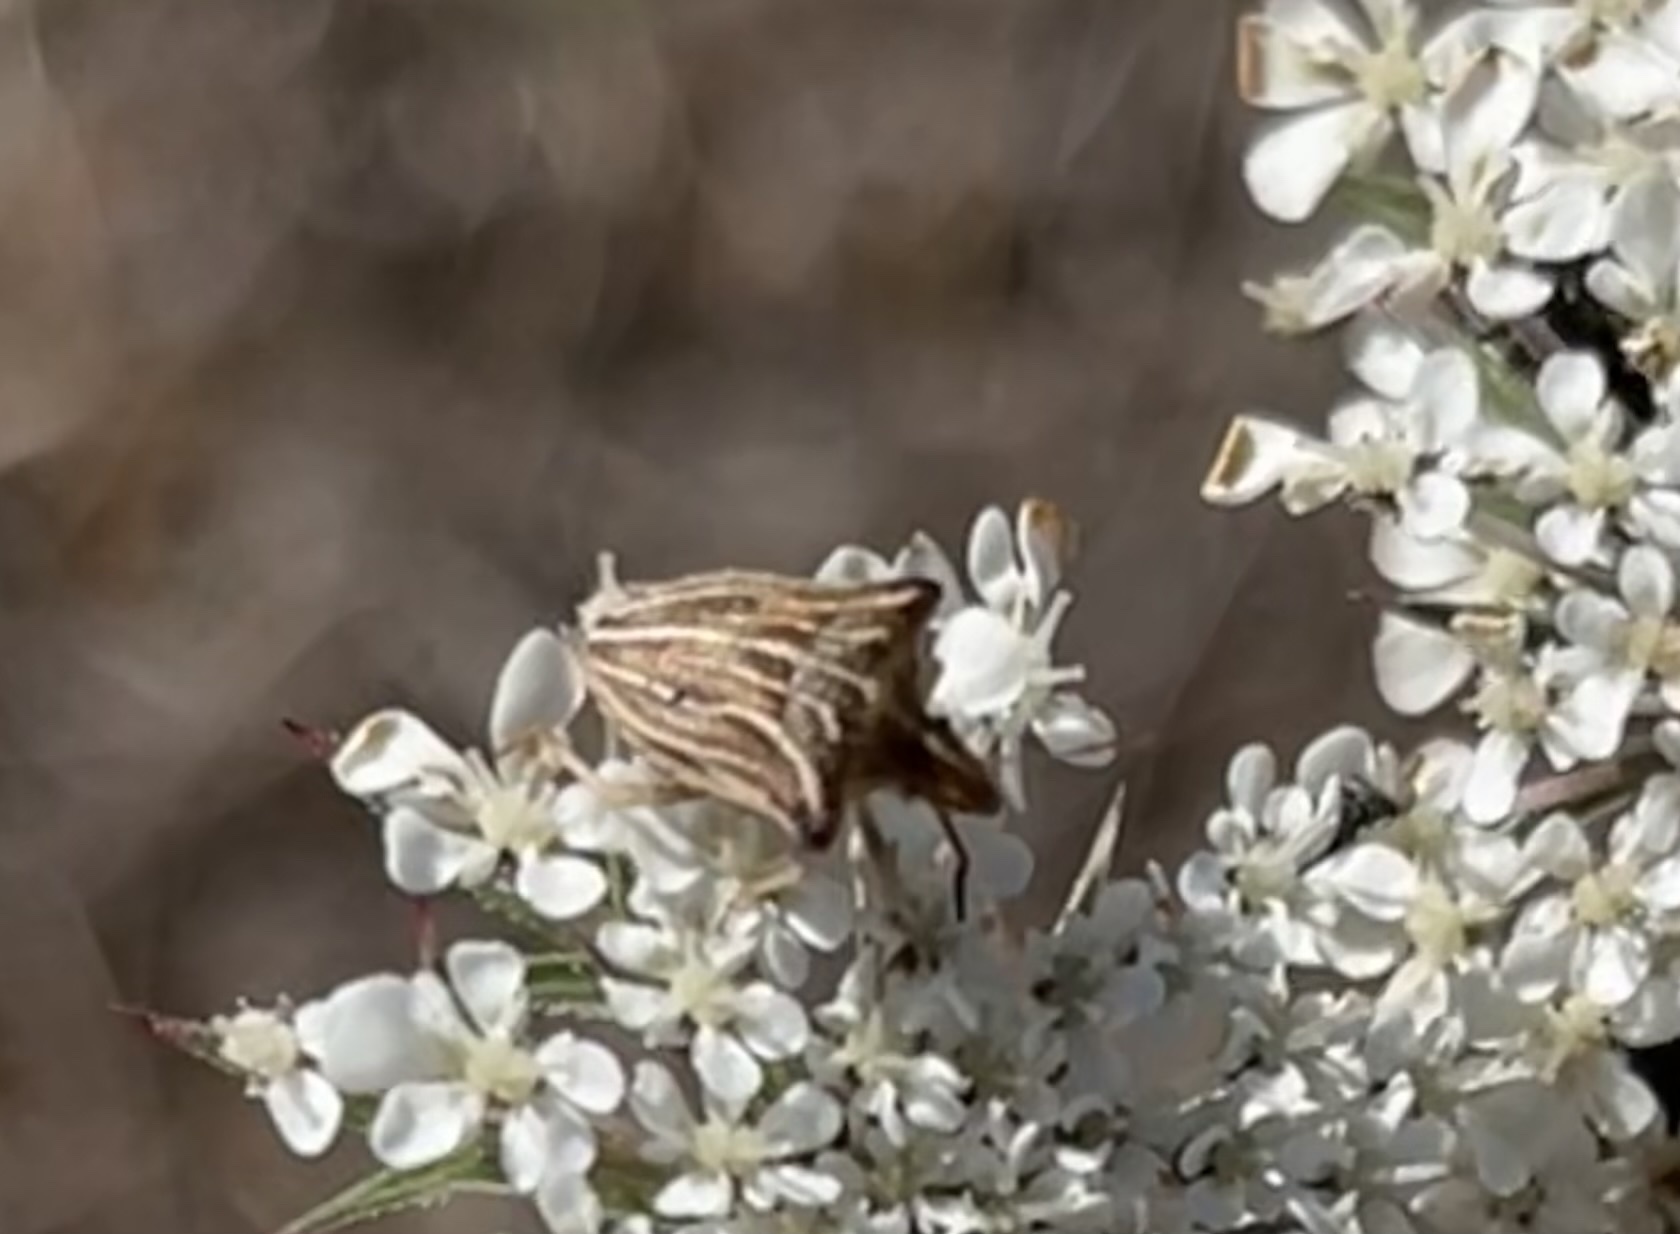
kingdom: Animalia
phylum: Arthropoda
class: Insecta
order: Hemiptera
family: Pentatomidae
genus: Ancyrosoma
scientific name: Ancyrosoma leucogrammes
